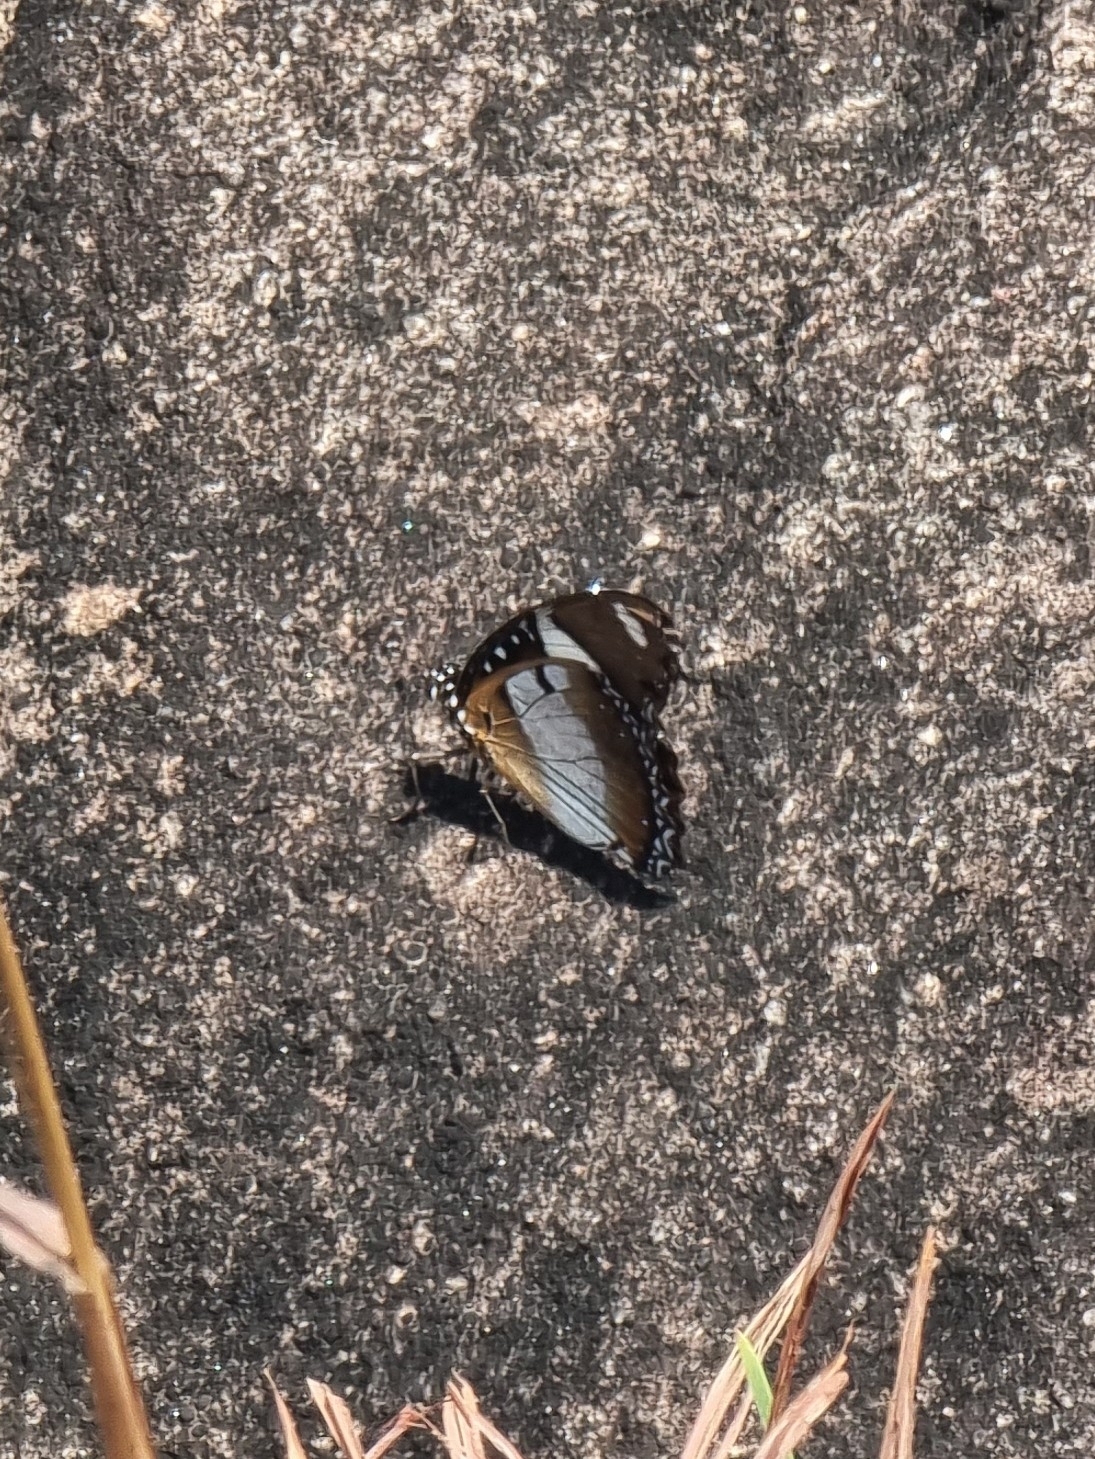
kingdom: Animalia
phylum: Arthropoda
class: Insecta
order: Lepidoptera
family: Nymphalidae
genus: Hypolimnas
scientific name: Hypolimnas misippus
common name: False plain tiger
